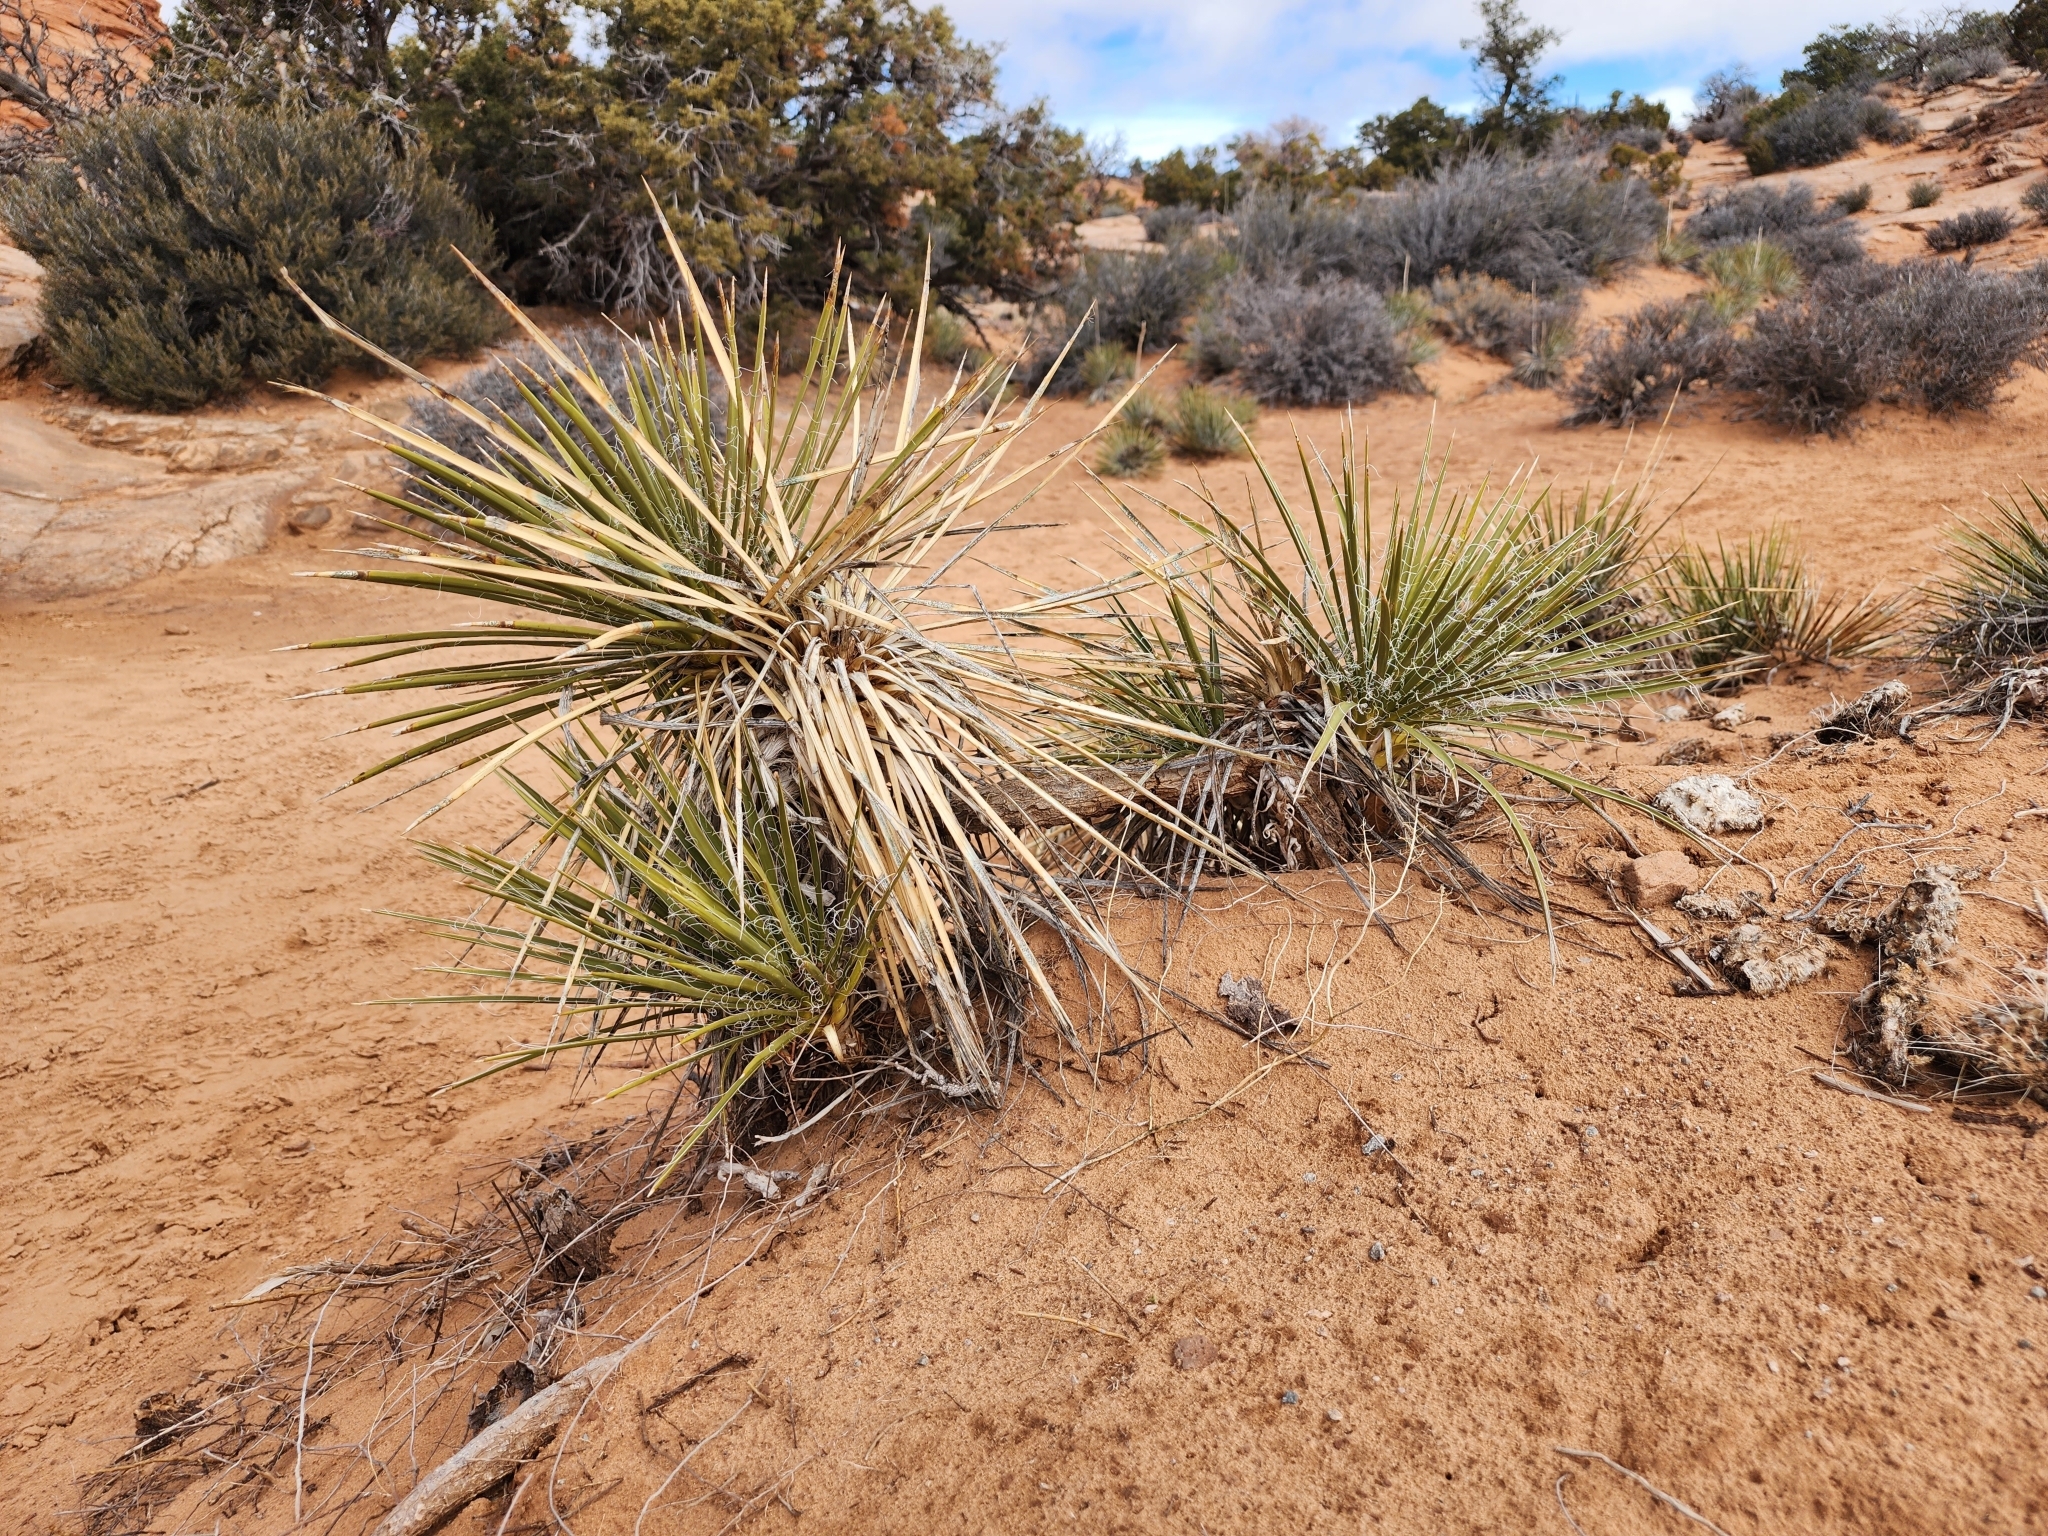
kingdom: Plantae
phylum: Tracheophyta
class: Liliopsida
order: Asparagales
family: Asparagaceae
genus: Yucca
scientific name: Yucca angustissima
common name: Narrowleaf yucca
